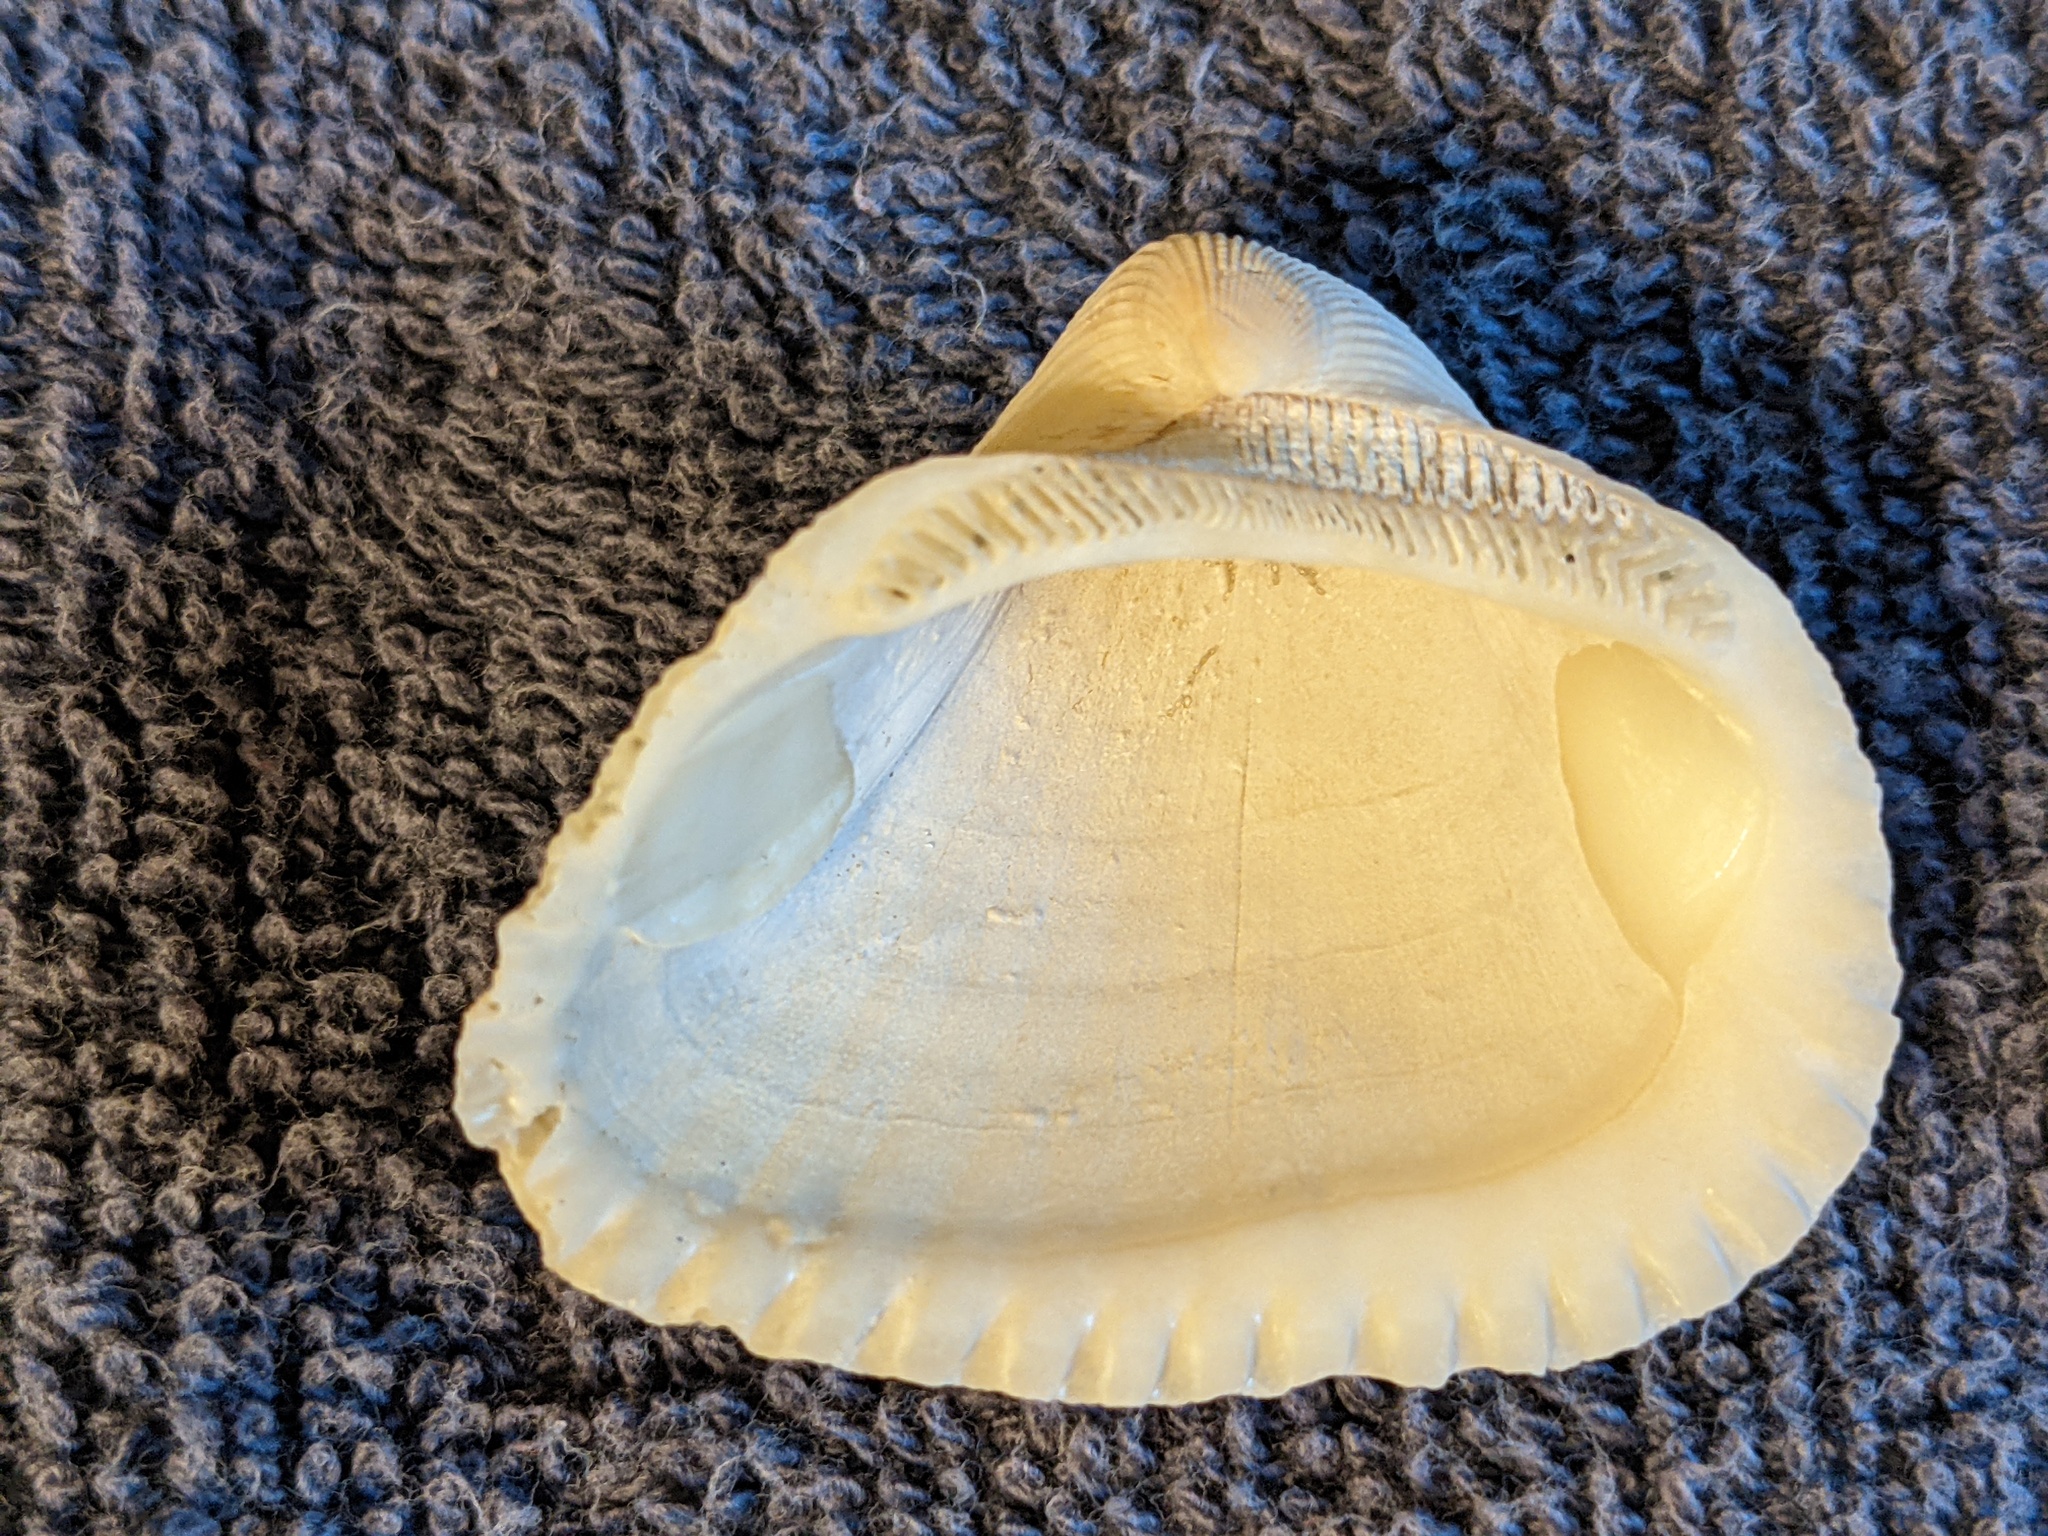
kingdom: Animalia
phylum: Mollusca
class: Bivalvia
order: Arcida
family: Noetiidae
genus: Noetia
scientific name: Noetia ponderosa
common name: Ponderous ark
